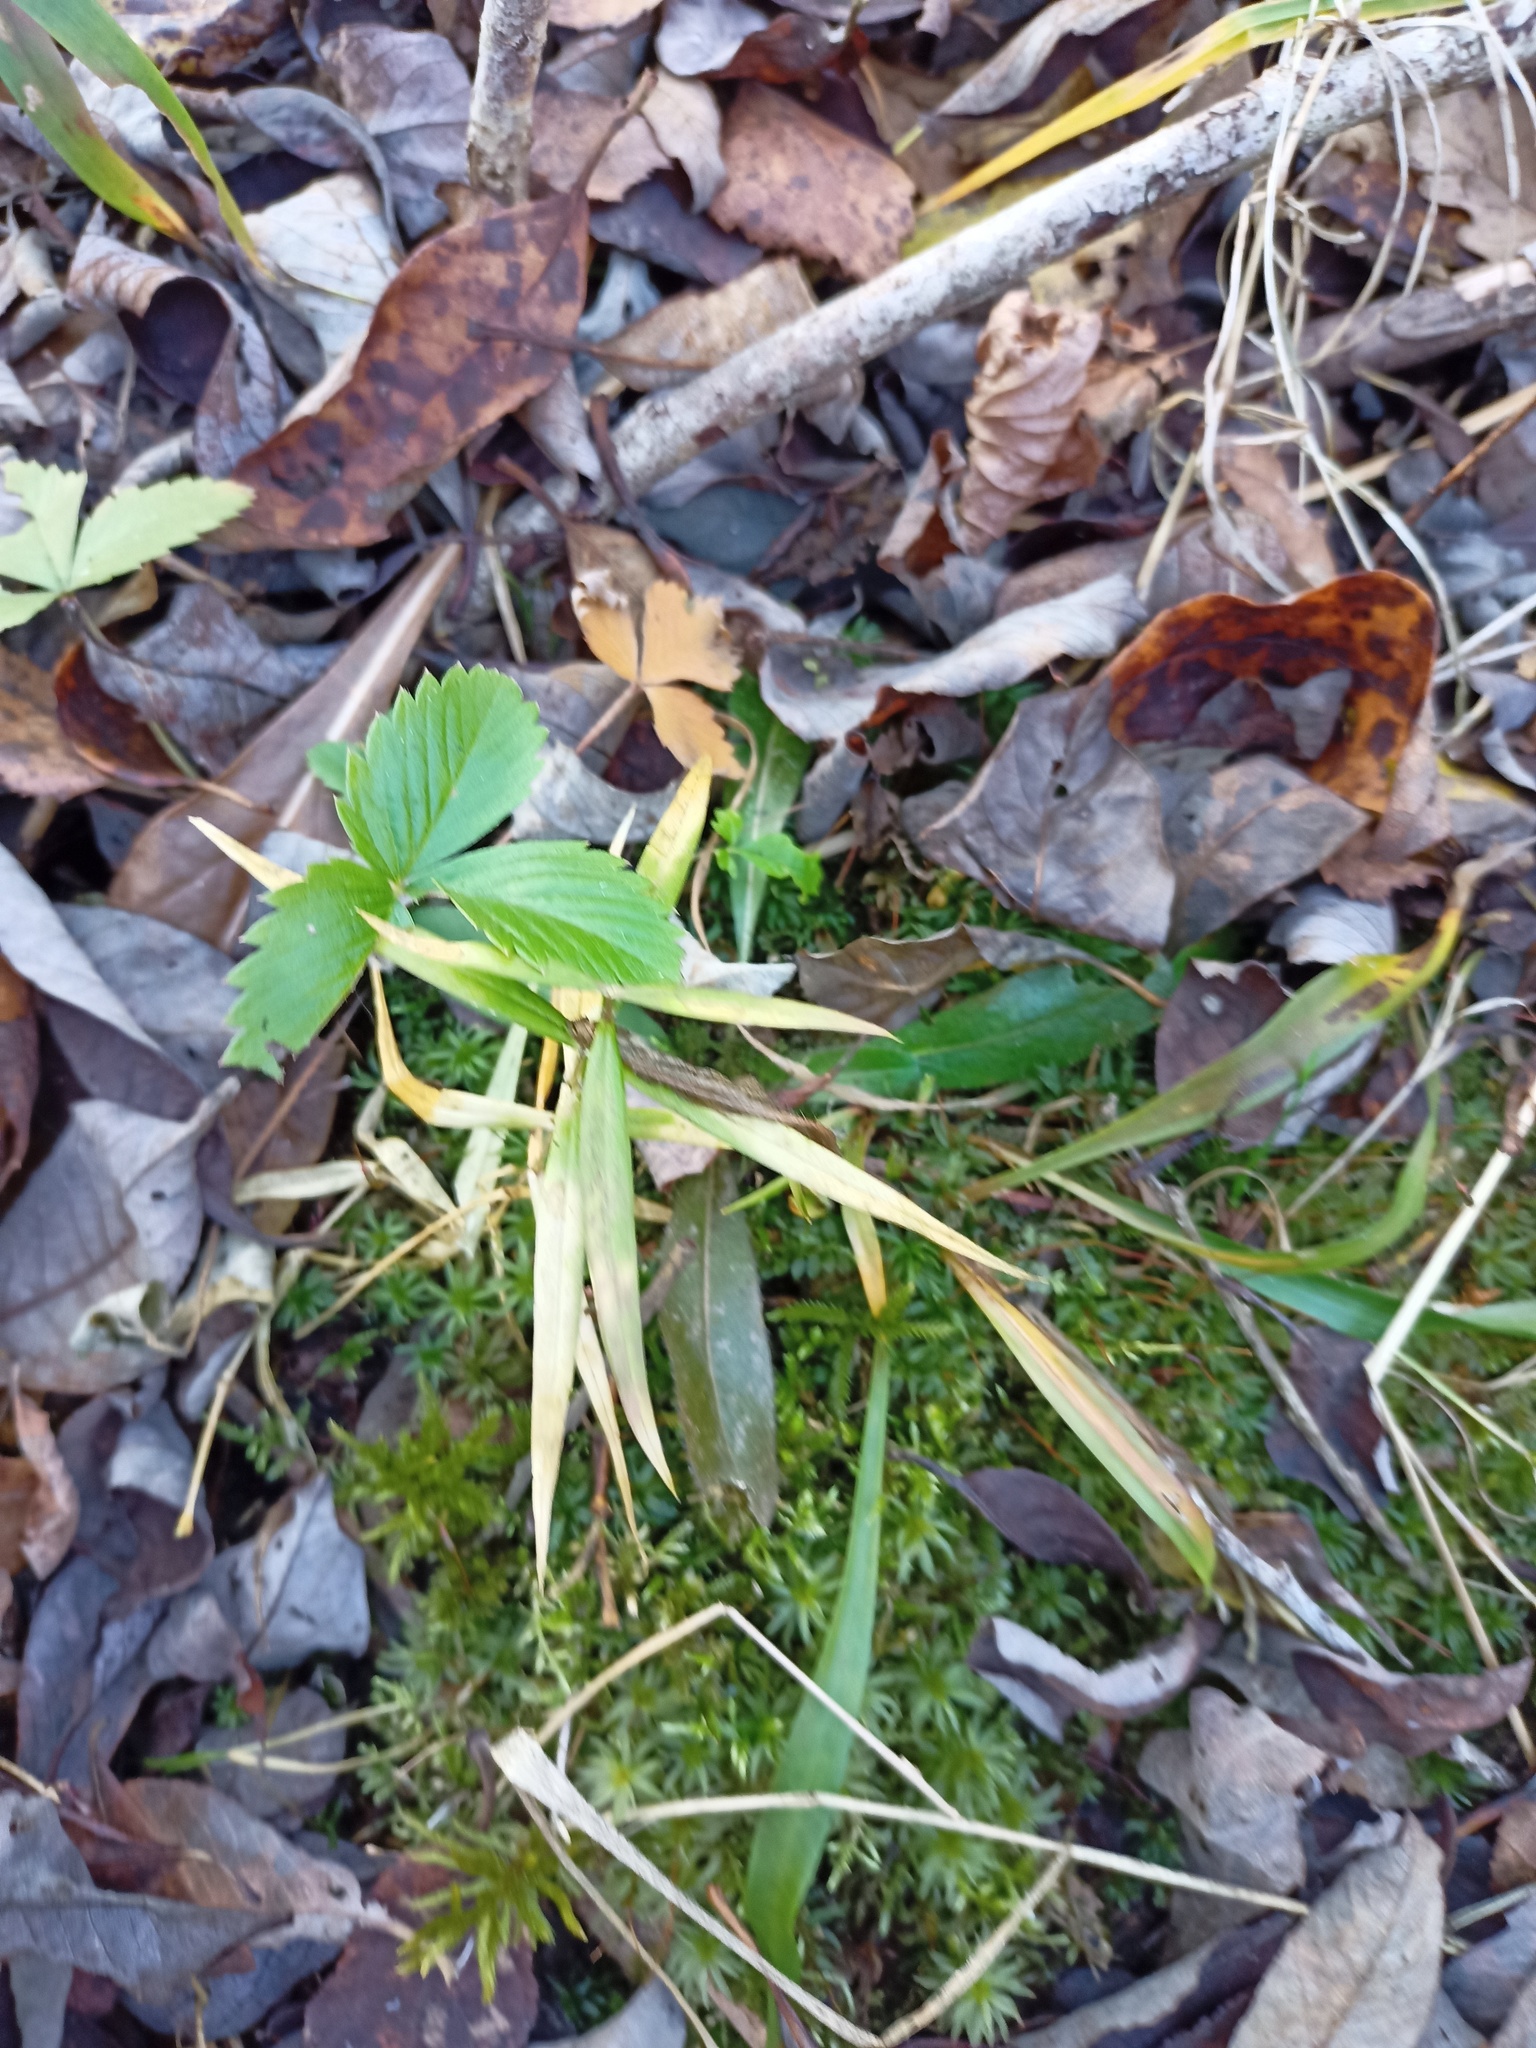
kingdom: Plantae
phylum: Tracheophyta
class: Magnoliopsida
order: Caryophyllales
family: Caryophyllaceae
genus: Rabelera
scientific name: Rabelera holostea
